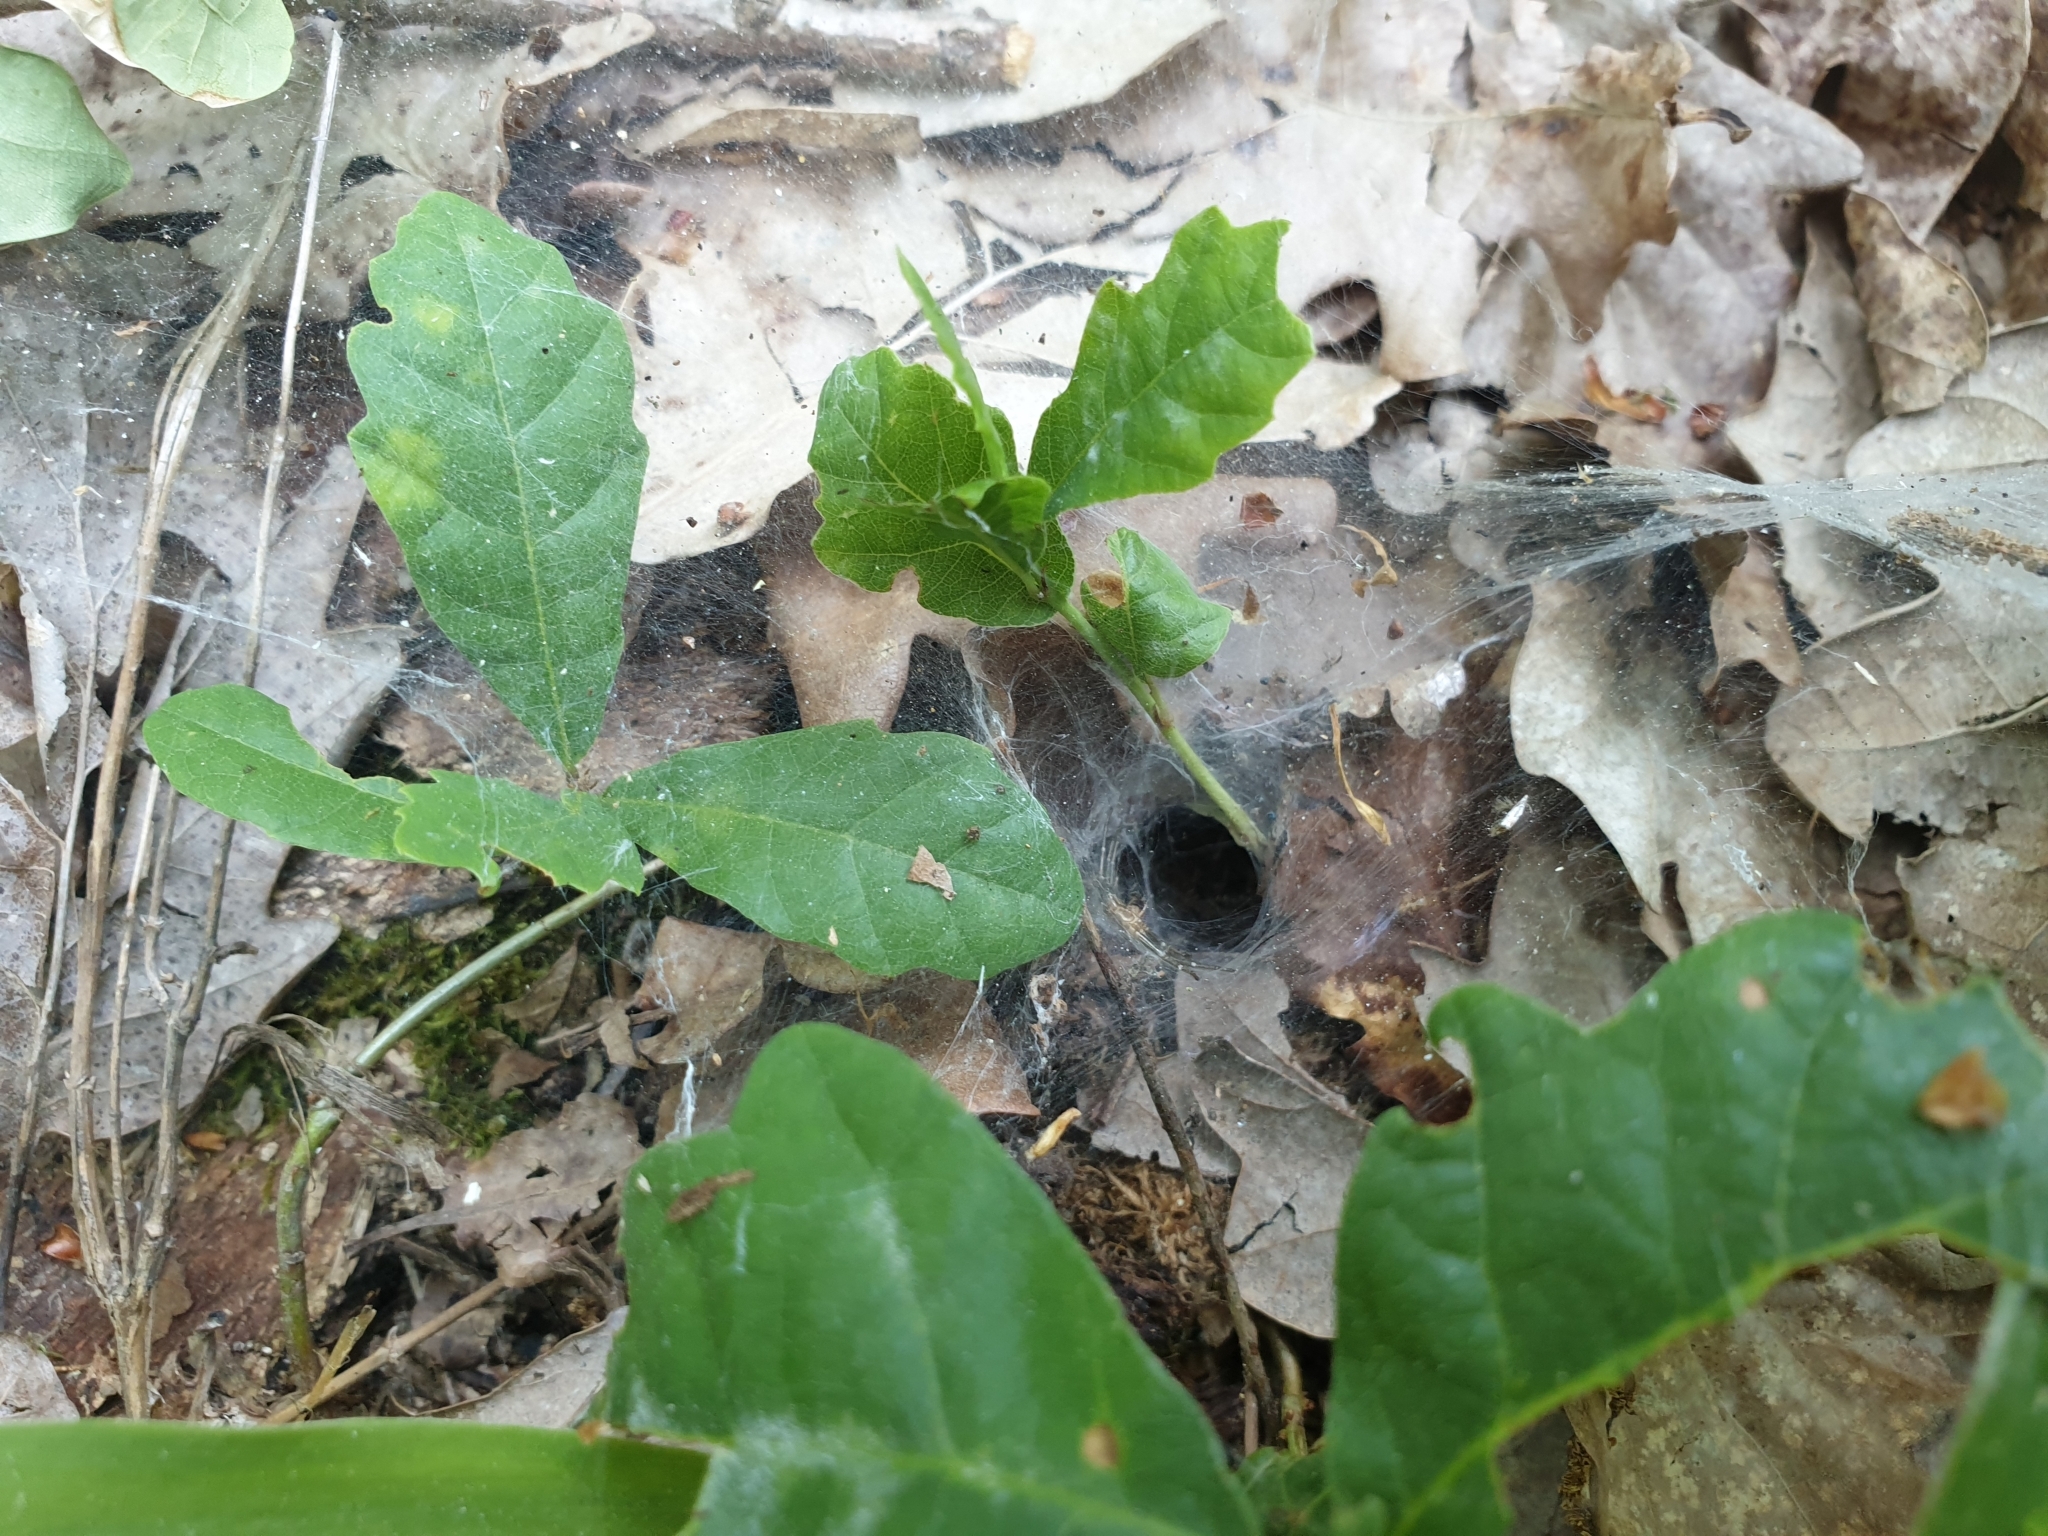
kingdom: Animalia
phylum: Arthropoda
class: Arachnida
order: Araneae
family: Agelenidae
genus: Agelena
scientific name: Agelena labyrinthica
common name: Labyrinth spider
